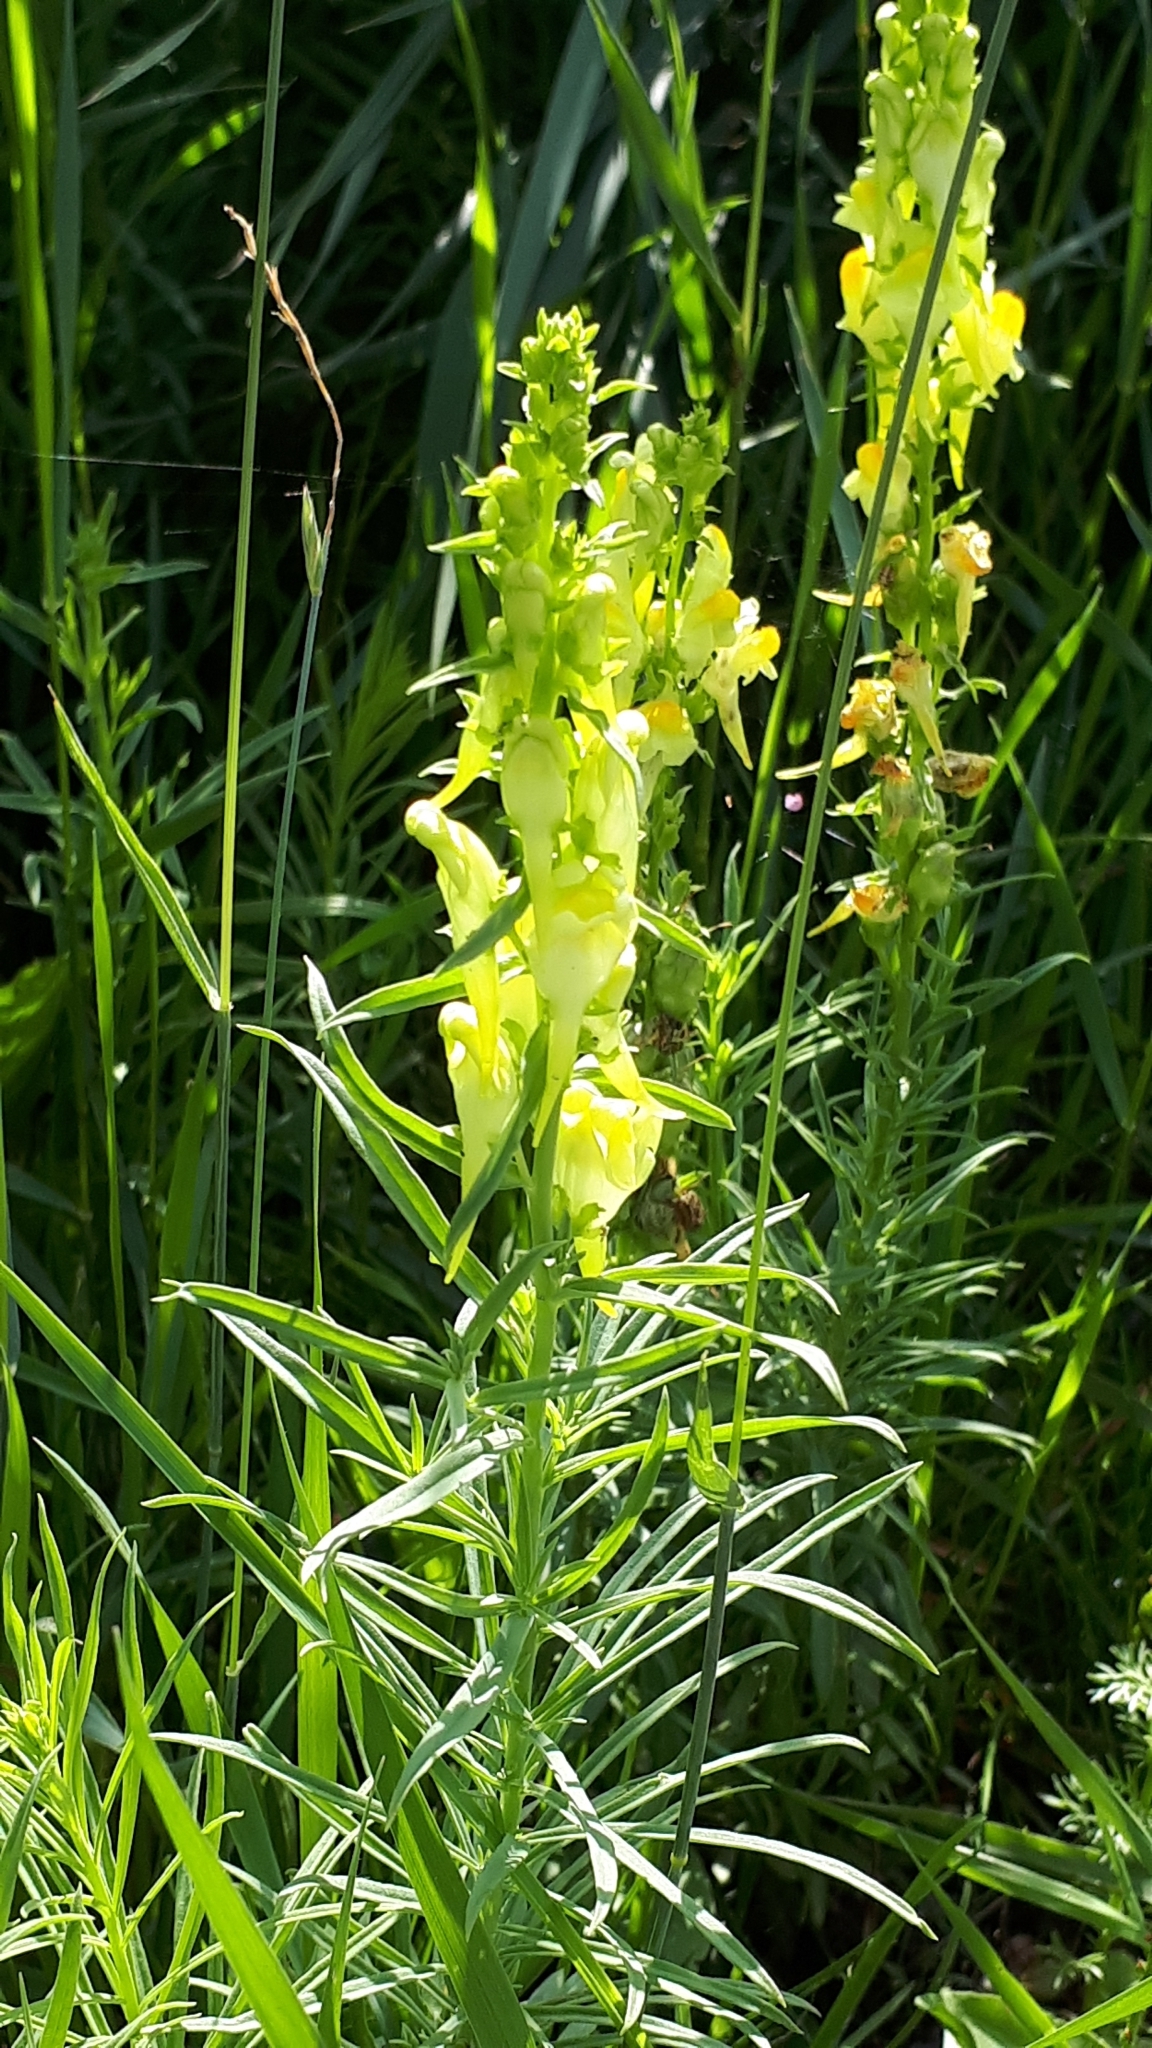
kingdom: Plantae
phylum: Tracheophyta
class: Magnoliopsida
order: Lamiales
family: Plantaginaceae
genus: Linaria
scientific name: Linaria vulgaris
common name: Butter and eggs
